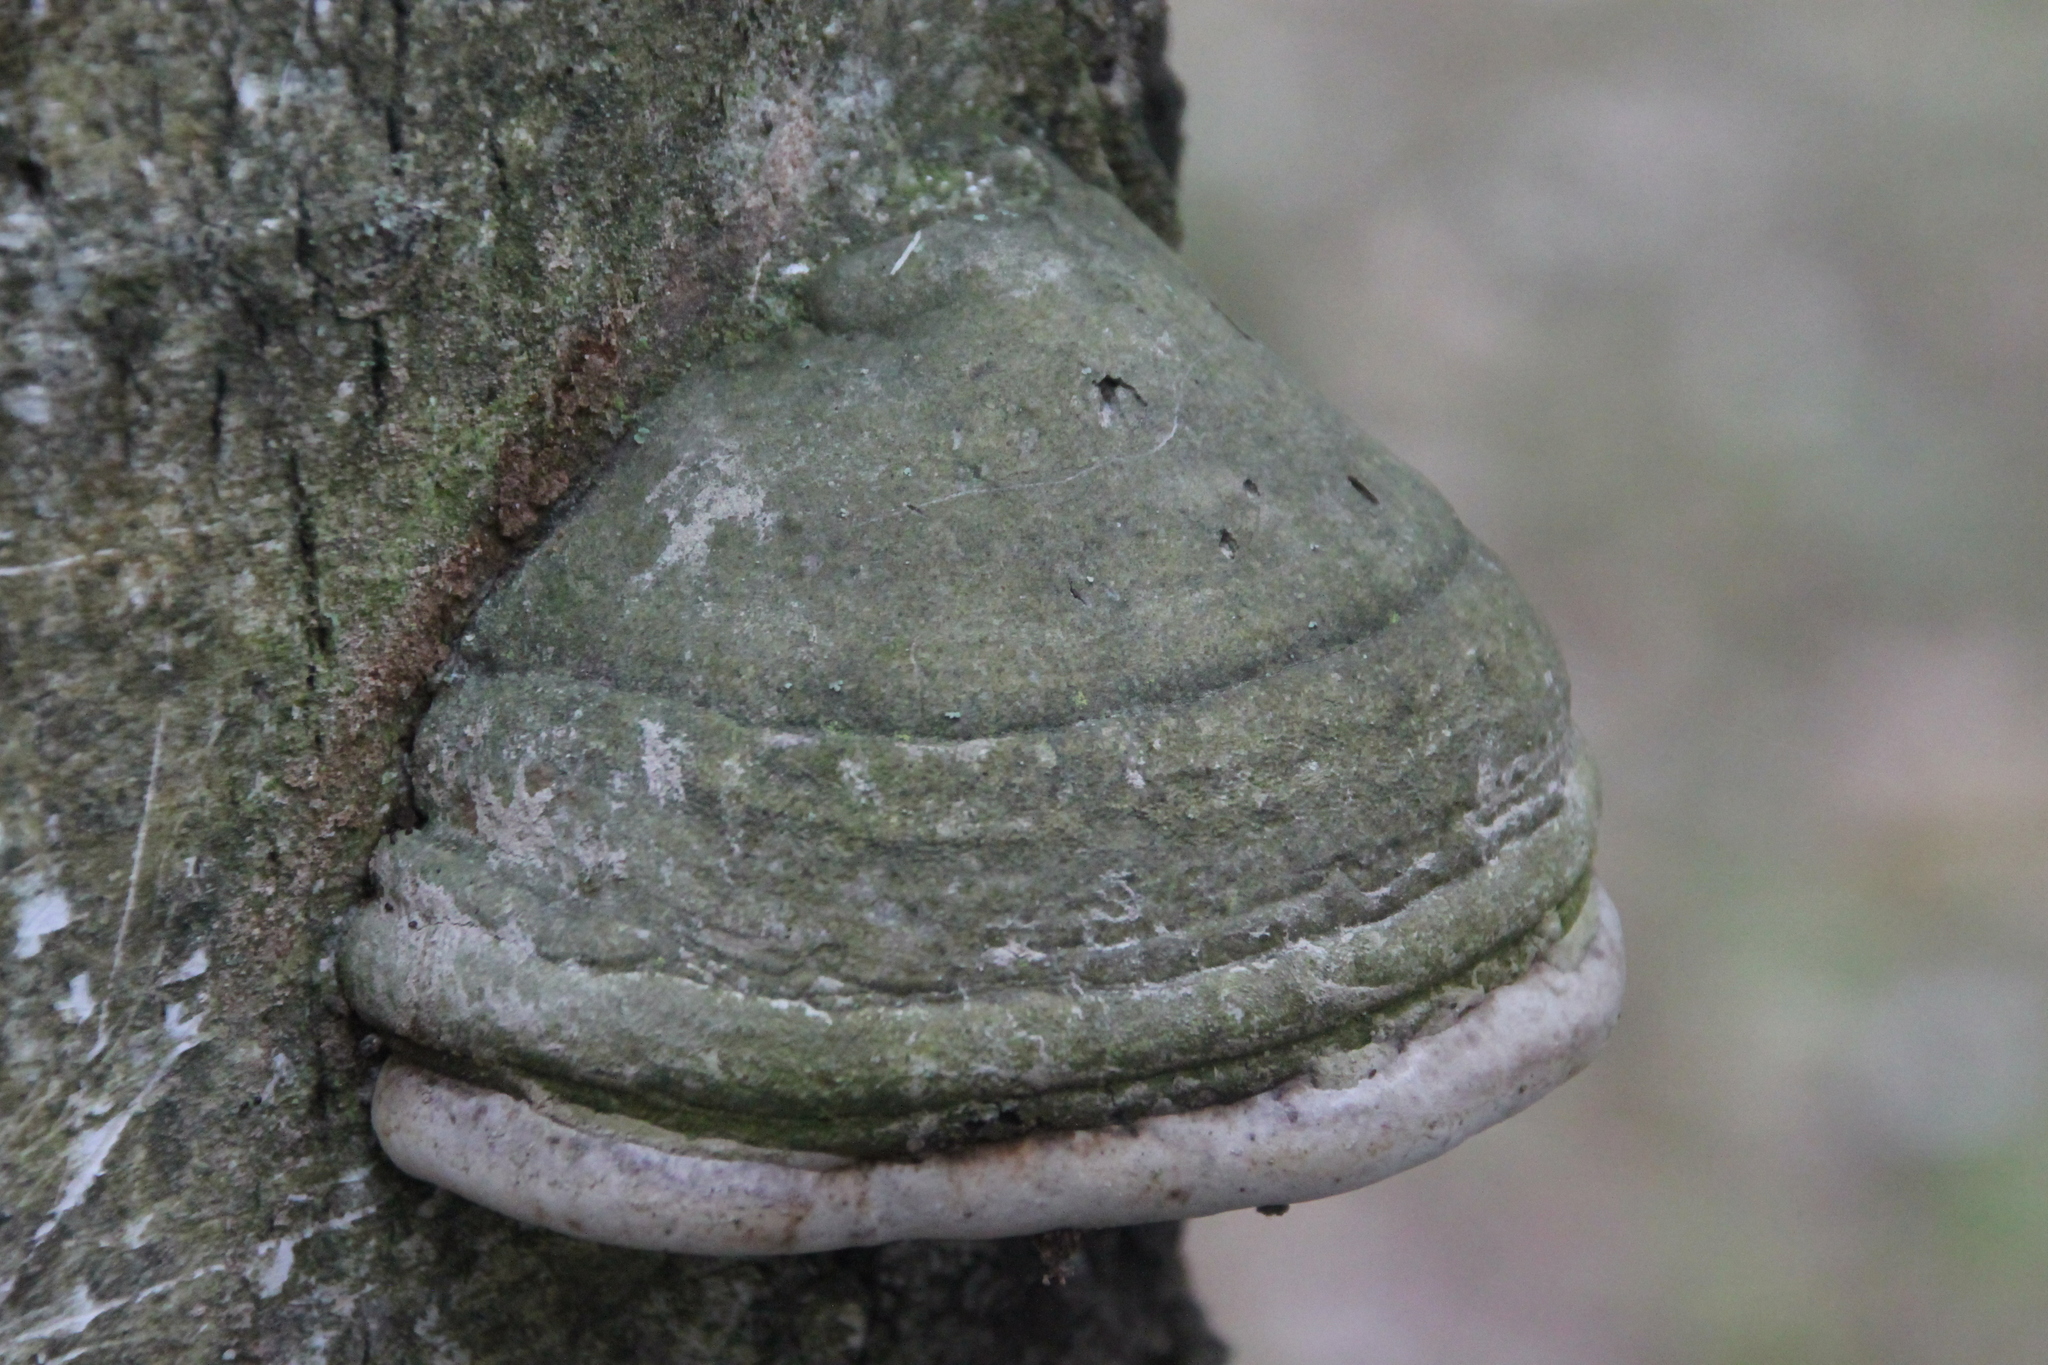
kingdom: Fungi
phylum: Basidiomycota
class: Agaricomycetes
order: Polyporales
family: Polyporaceae
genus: Fomes
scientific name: Fomes fomentarius
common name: Hoof fungus
